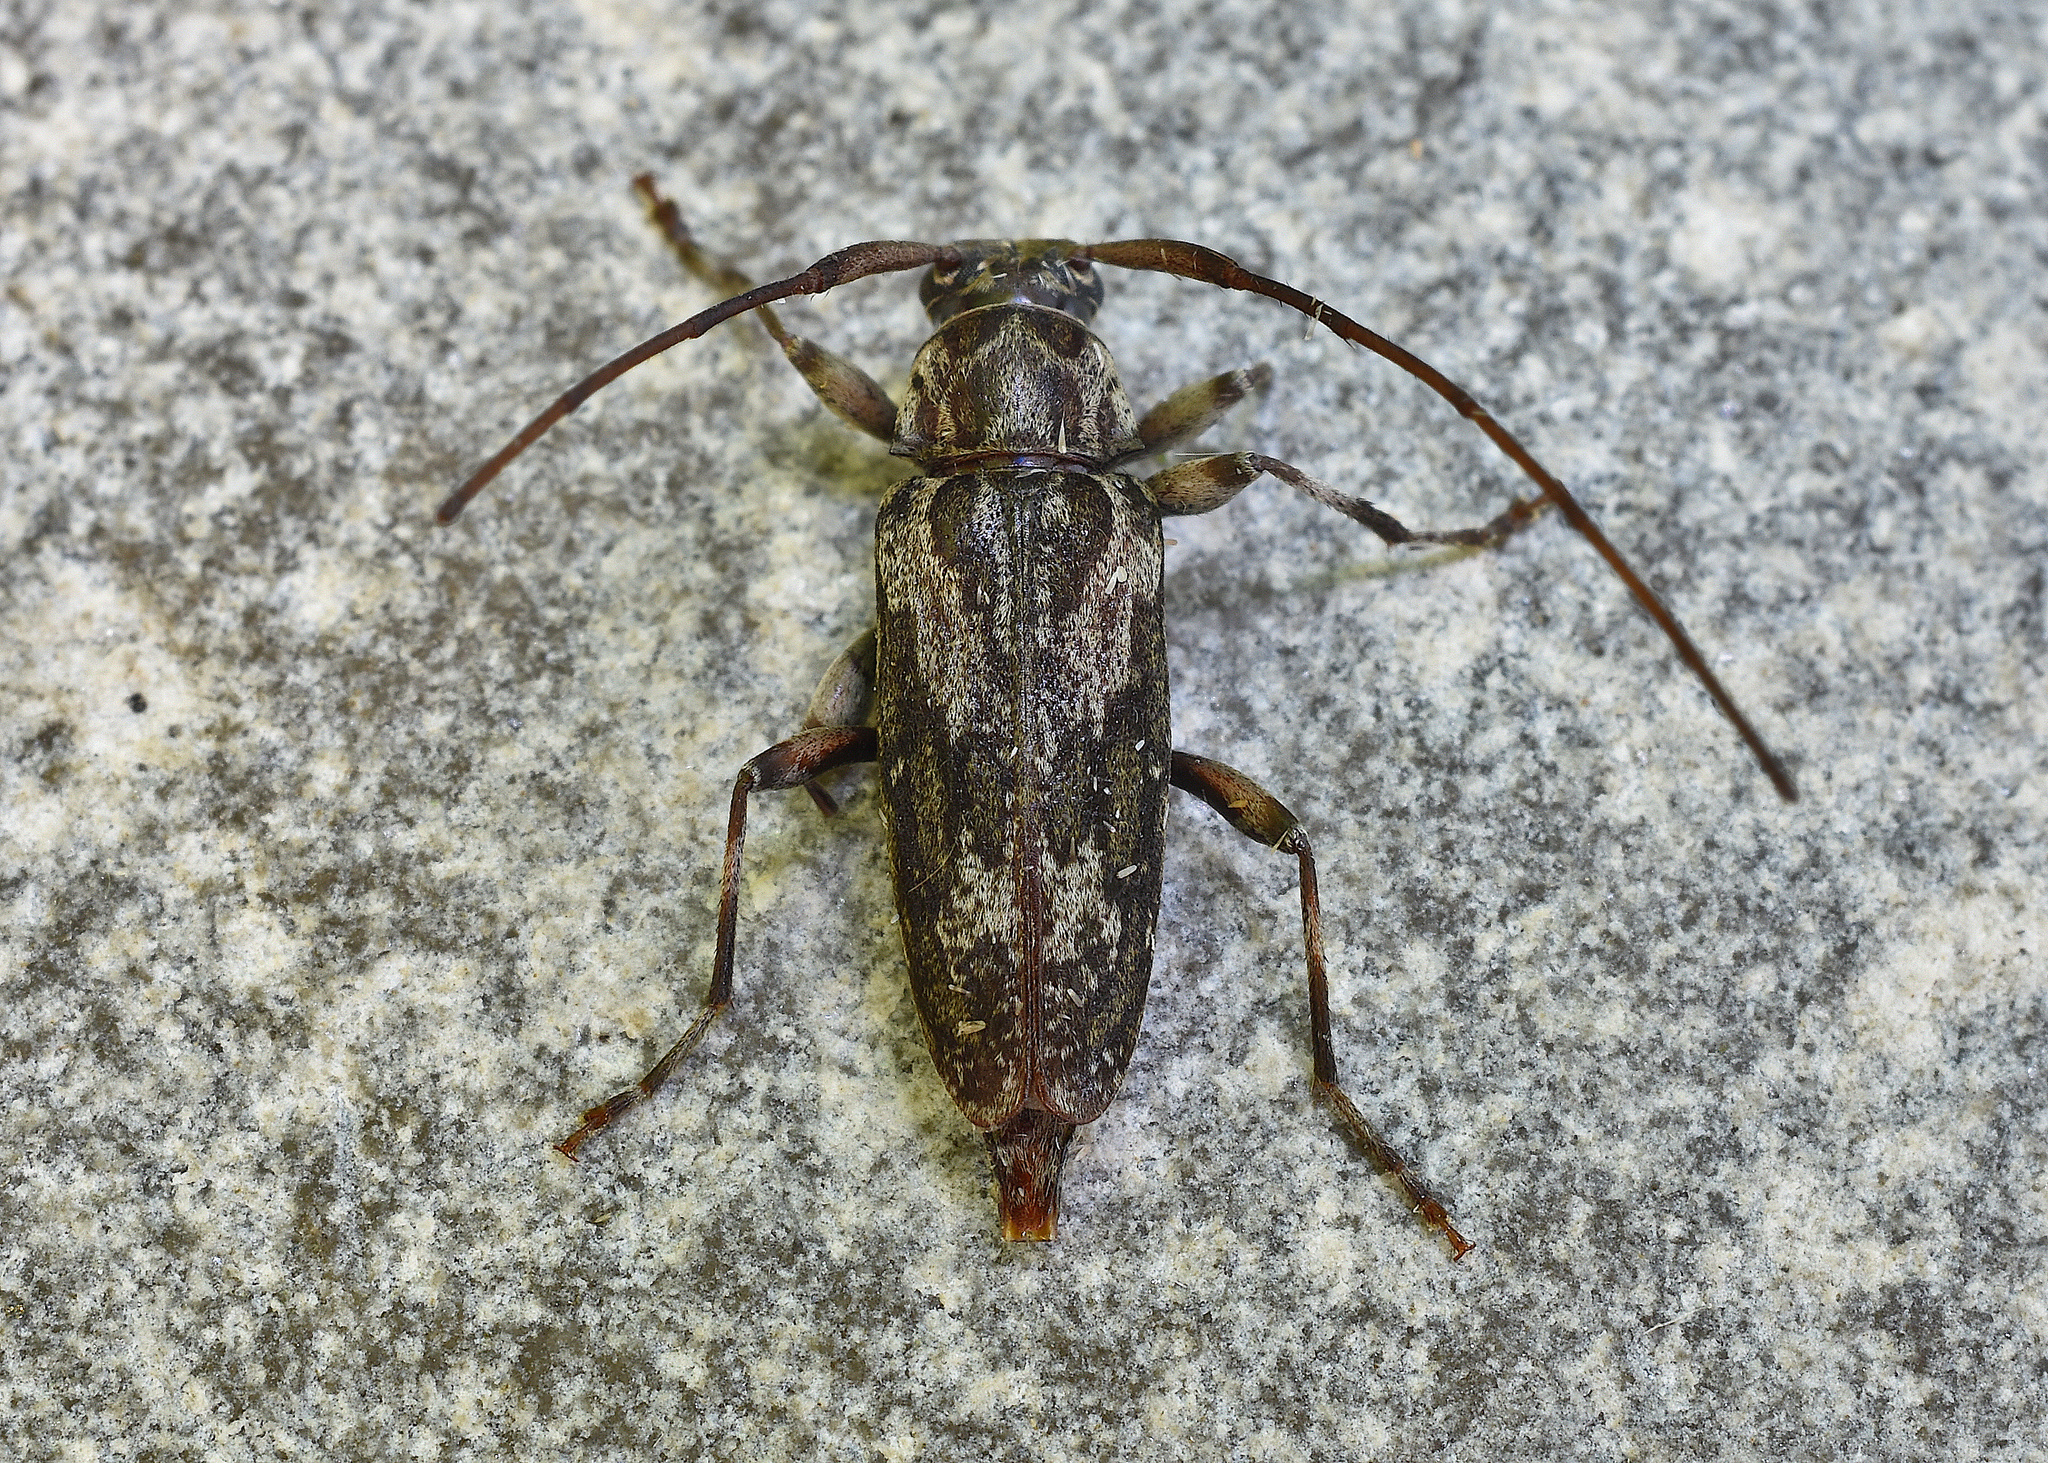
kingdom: Animalia
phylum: Arthropoda
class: Insecta
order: Coleoptera
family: Cerambycidae
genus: Lepturges
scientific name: Lepturges confluens
